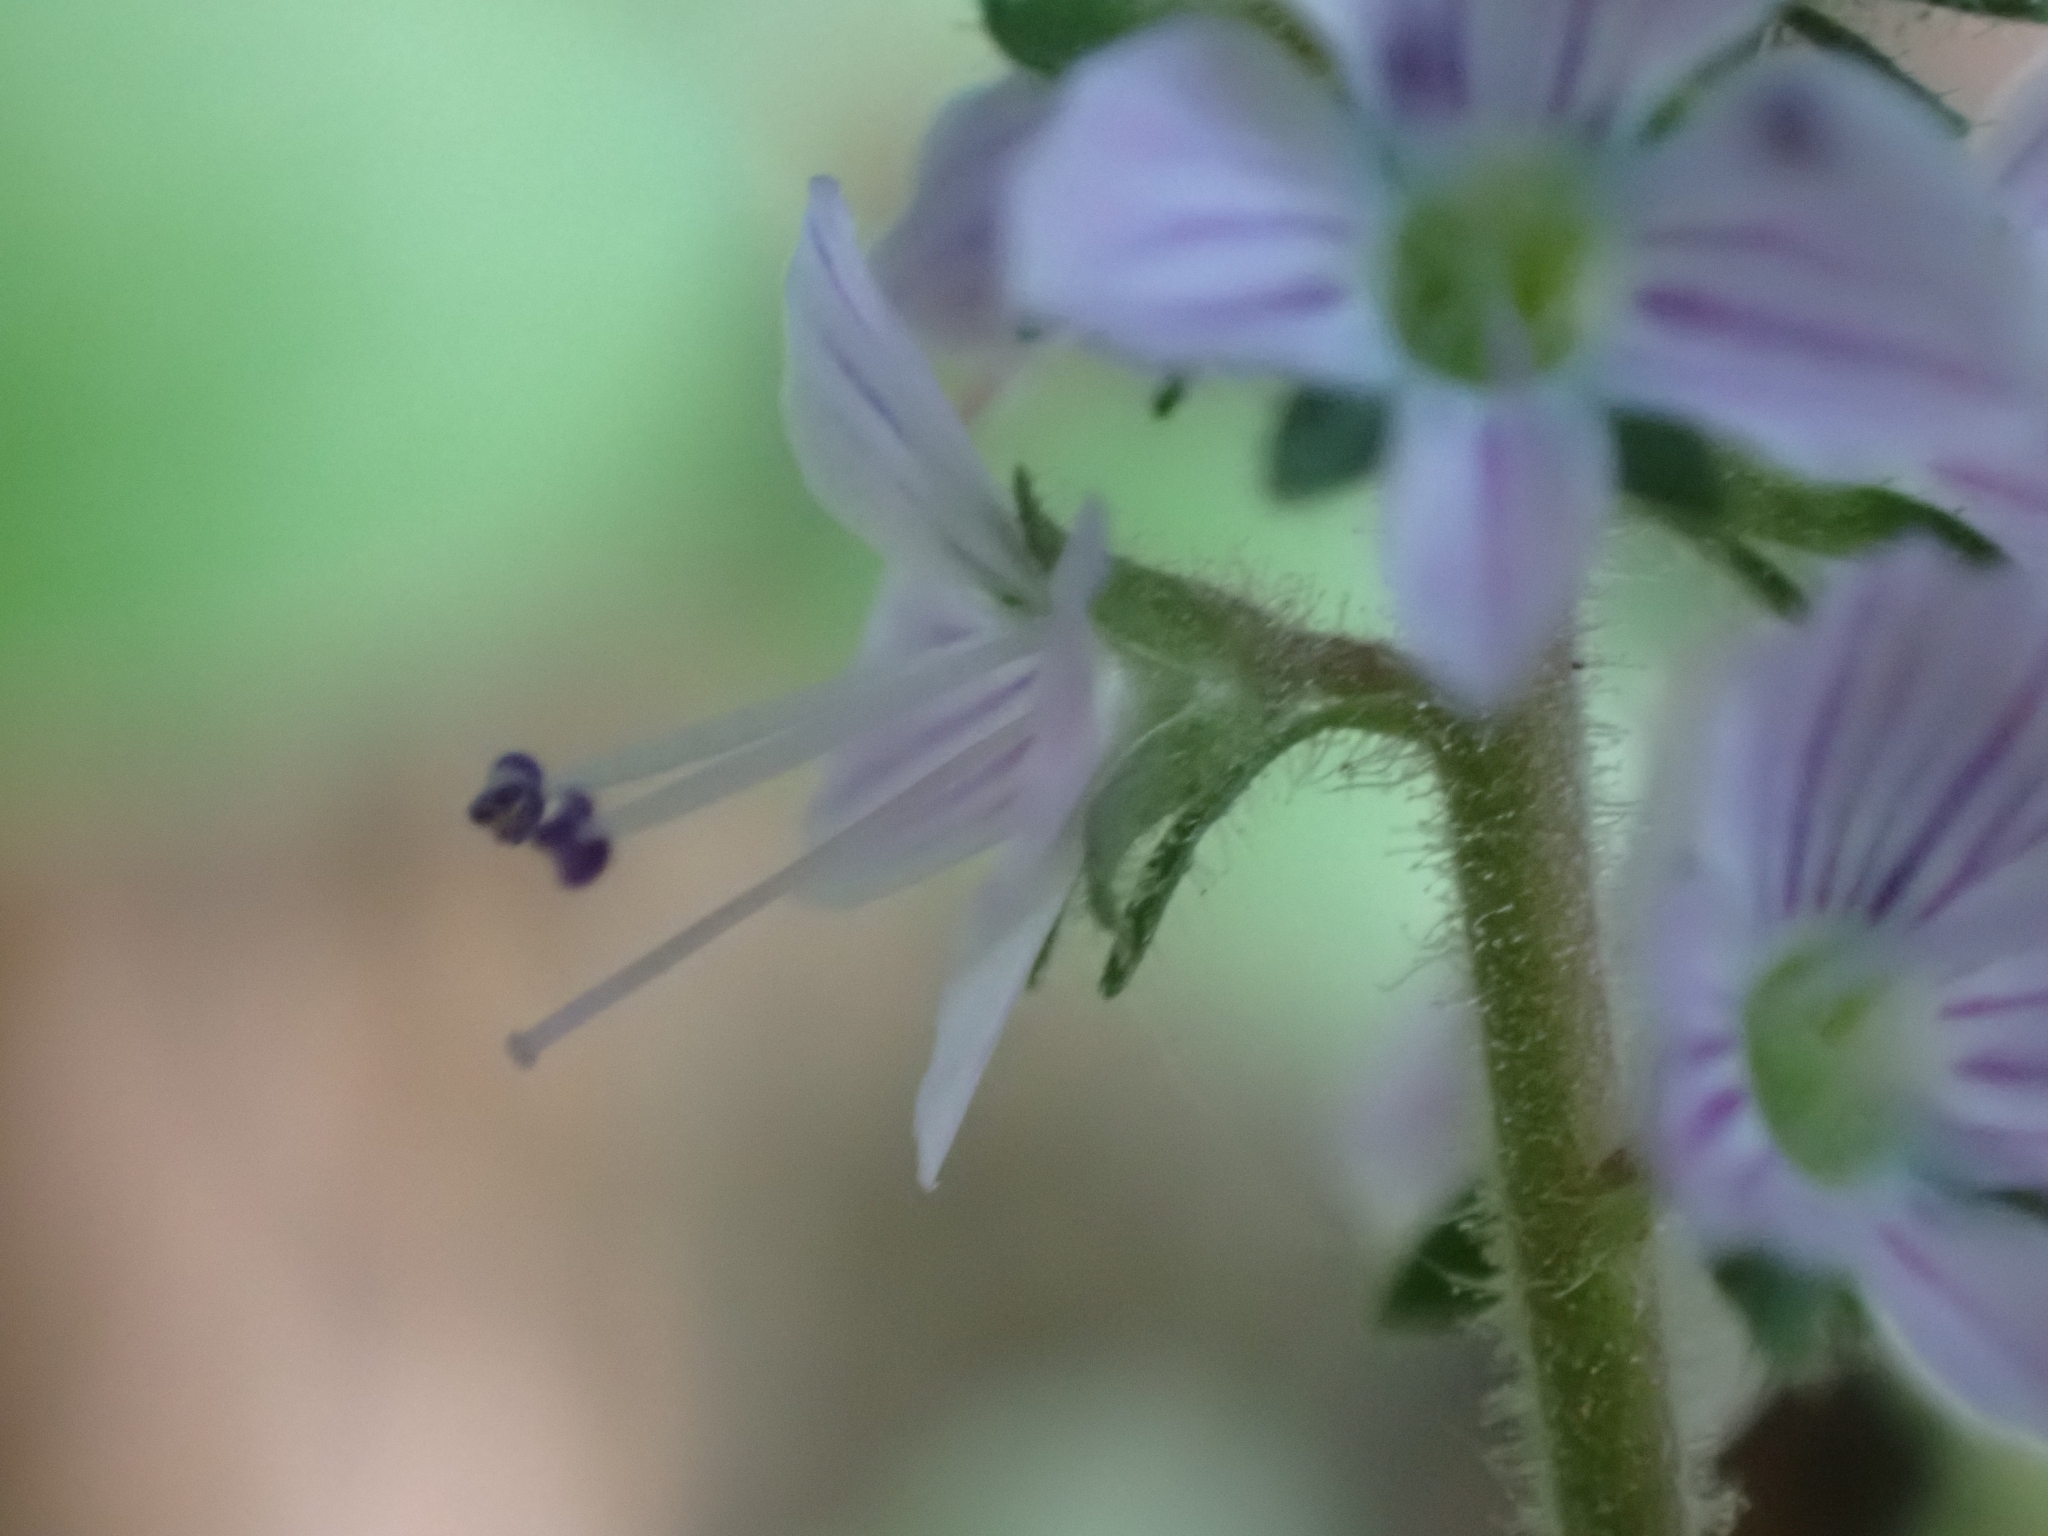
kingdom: Plantae
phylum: Tracheophyta
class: Magnoliopsida
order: Lamiales
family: Plantaginaceae
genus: Veronica
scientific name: Veronica officinalis
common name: Common speedwell
